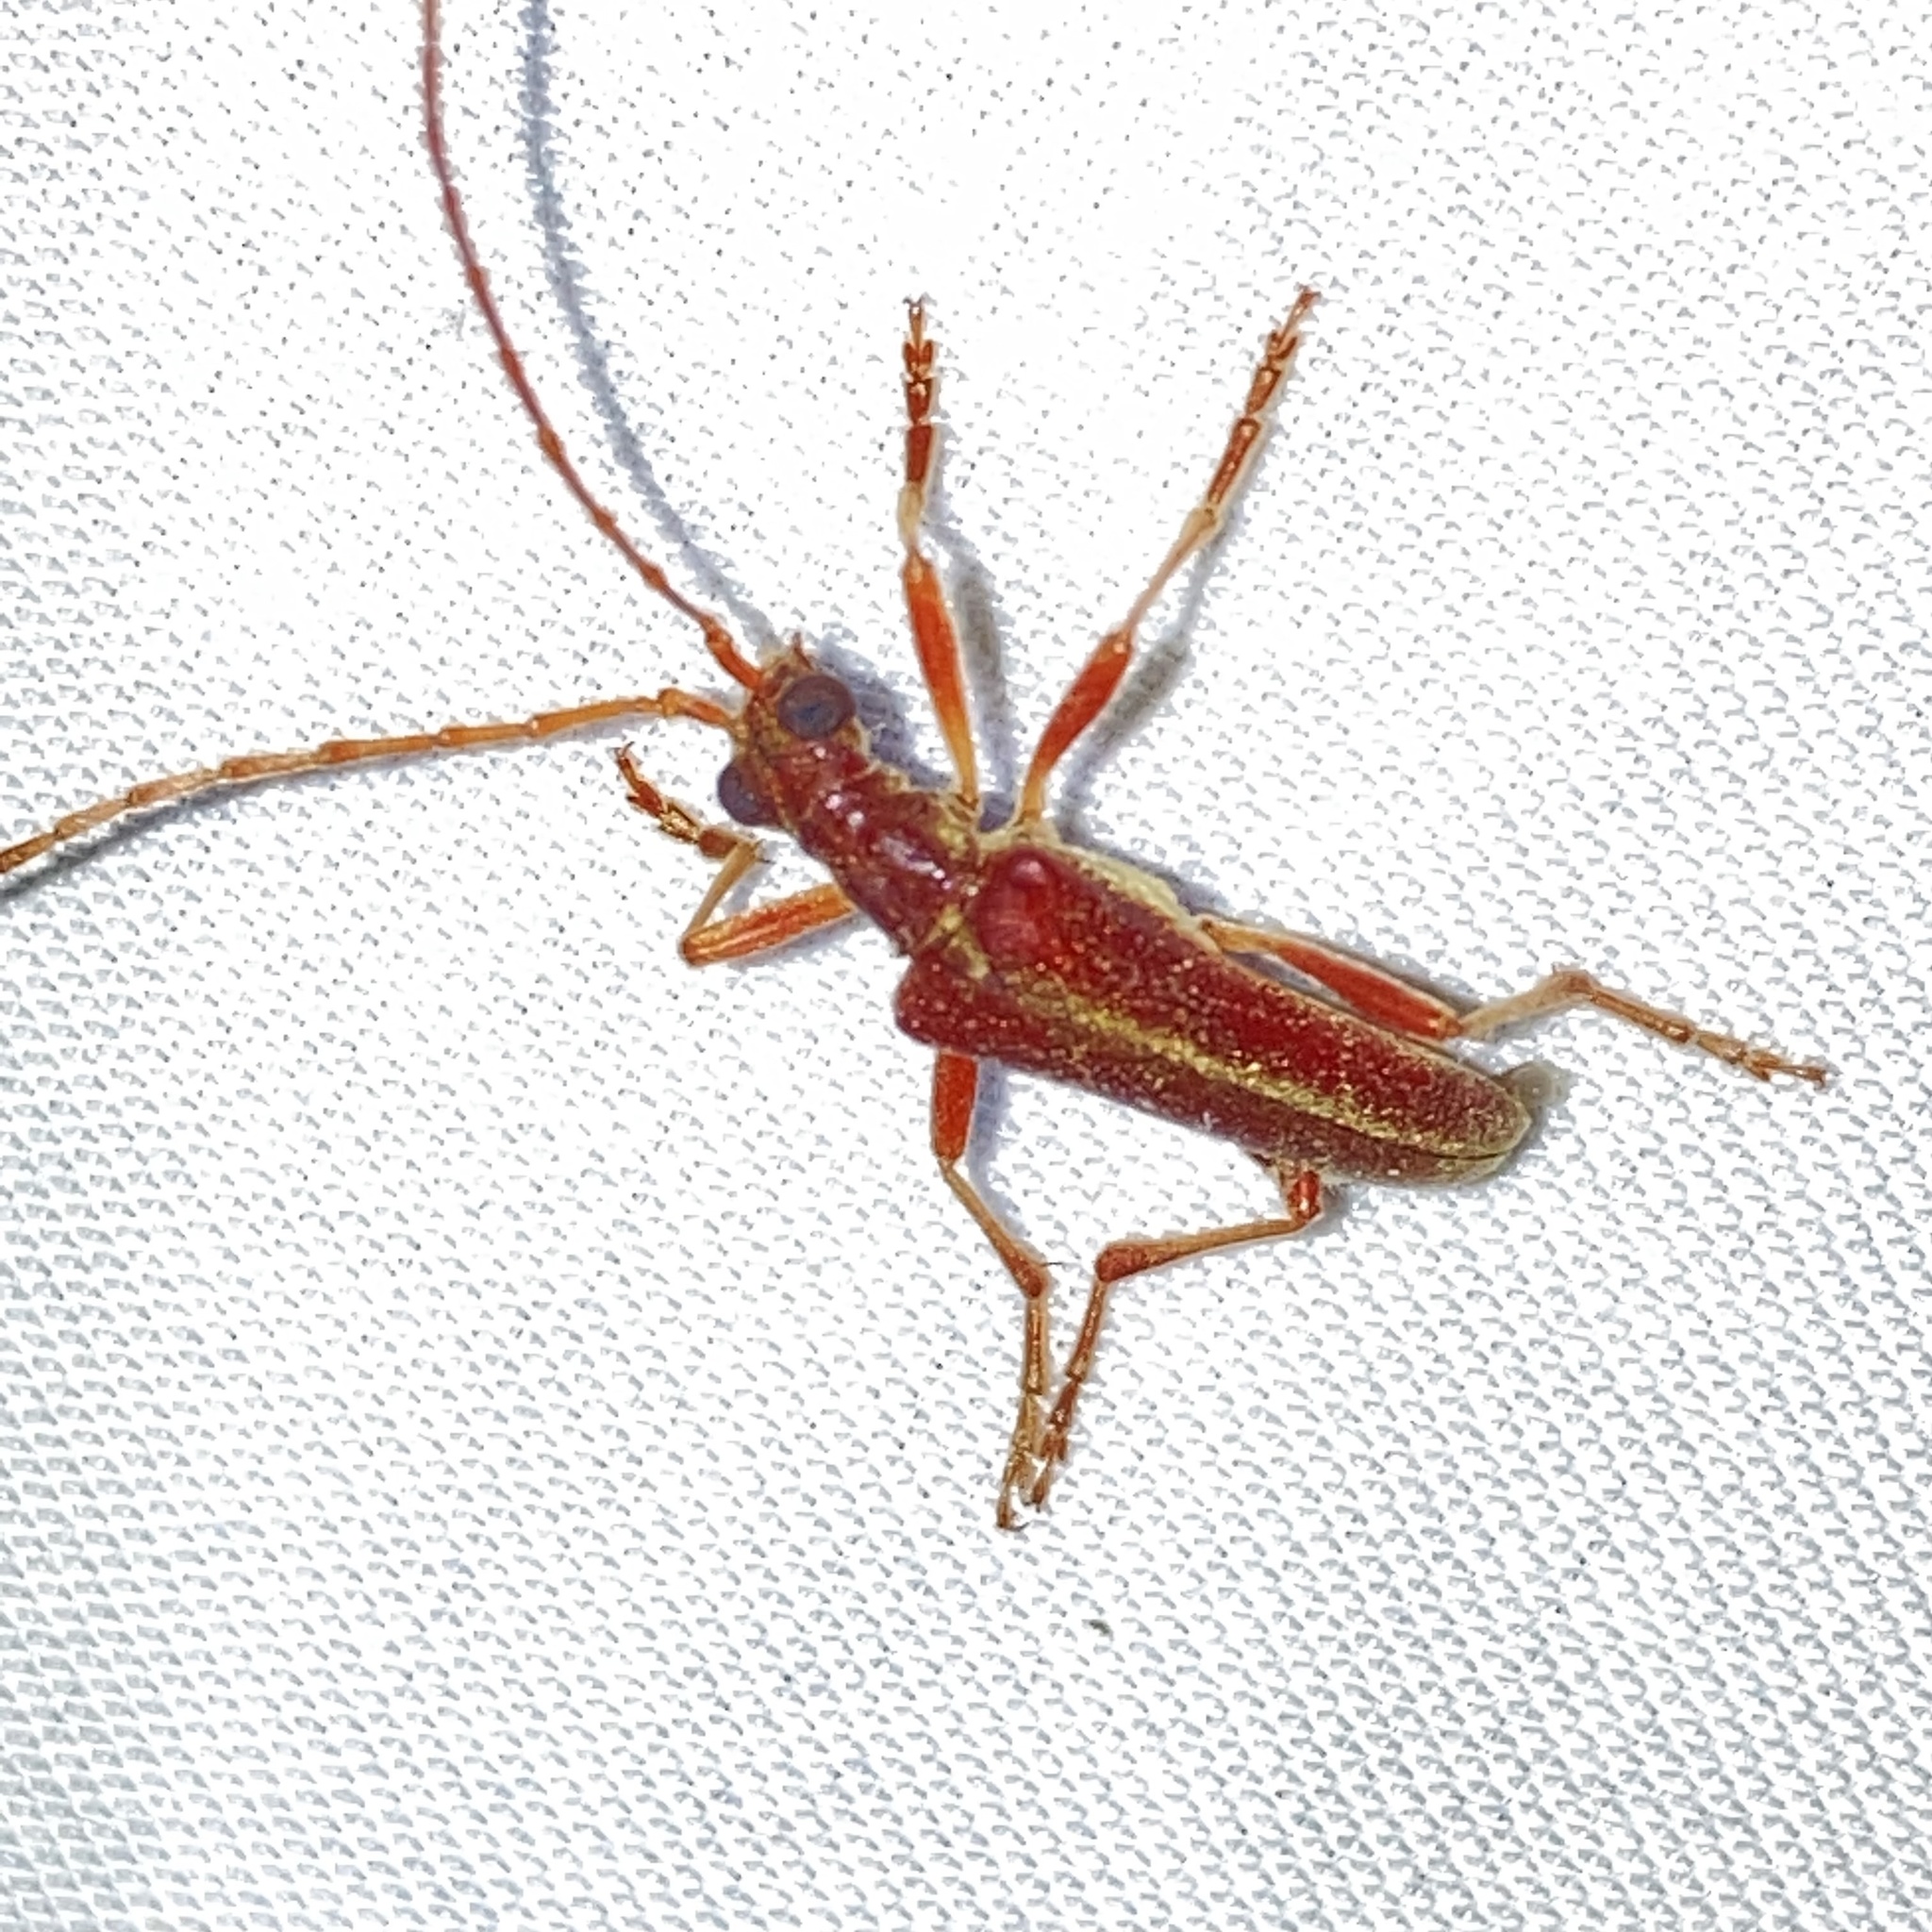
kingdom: Animalia
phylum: Arthropoda
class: Insecta
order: Coleoptera
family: Cerambycidae
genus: Stenocorus
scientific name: Stenocorus cinnamopterus
